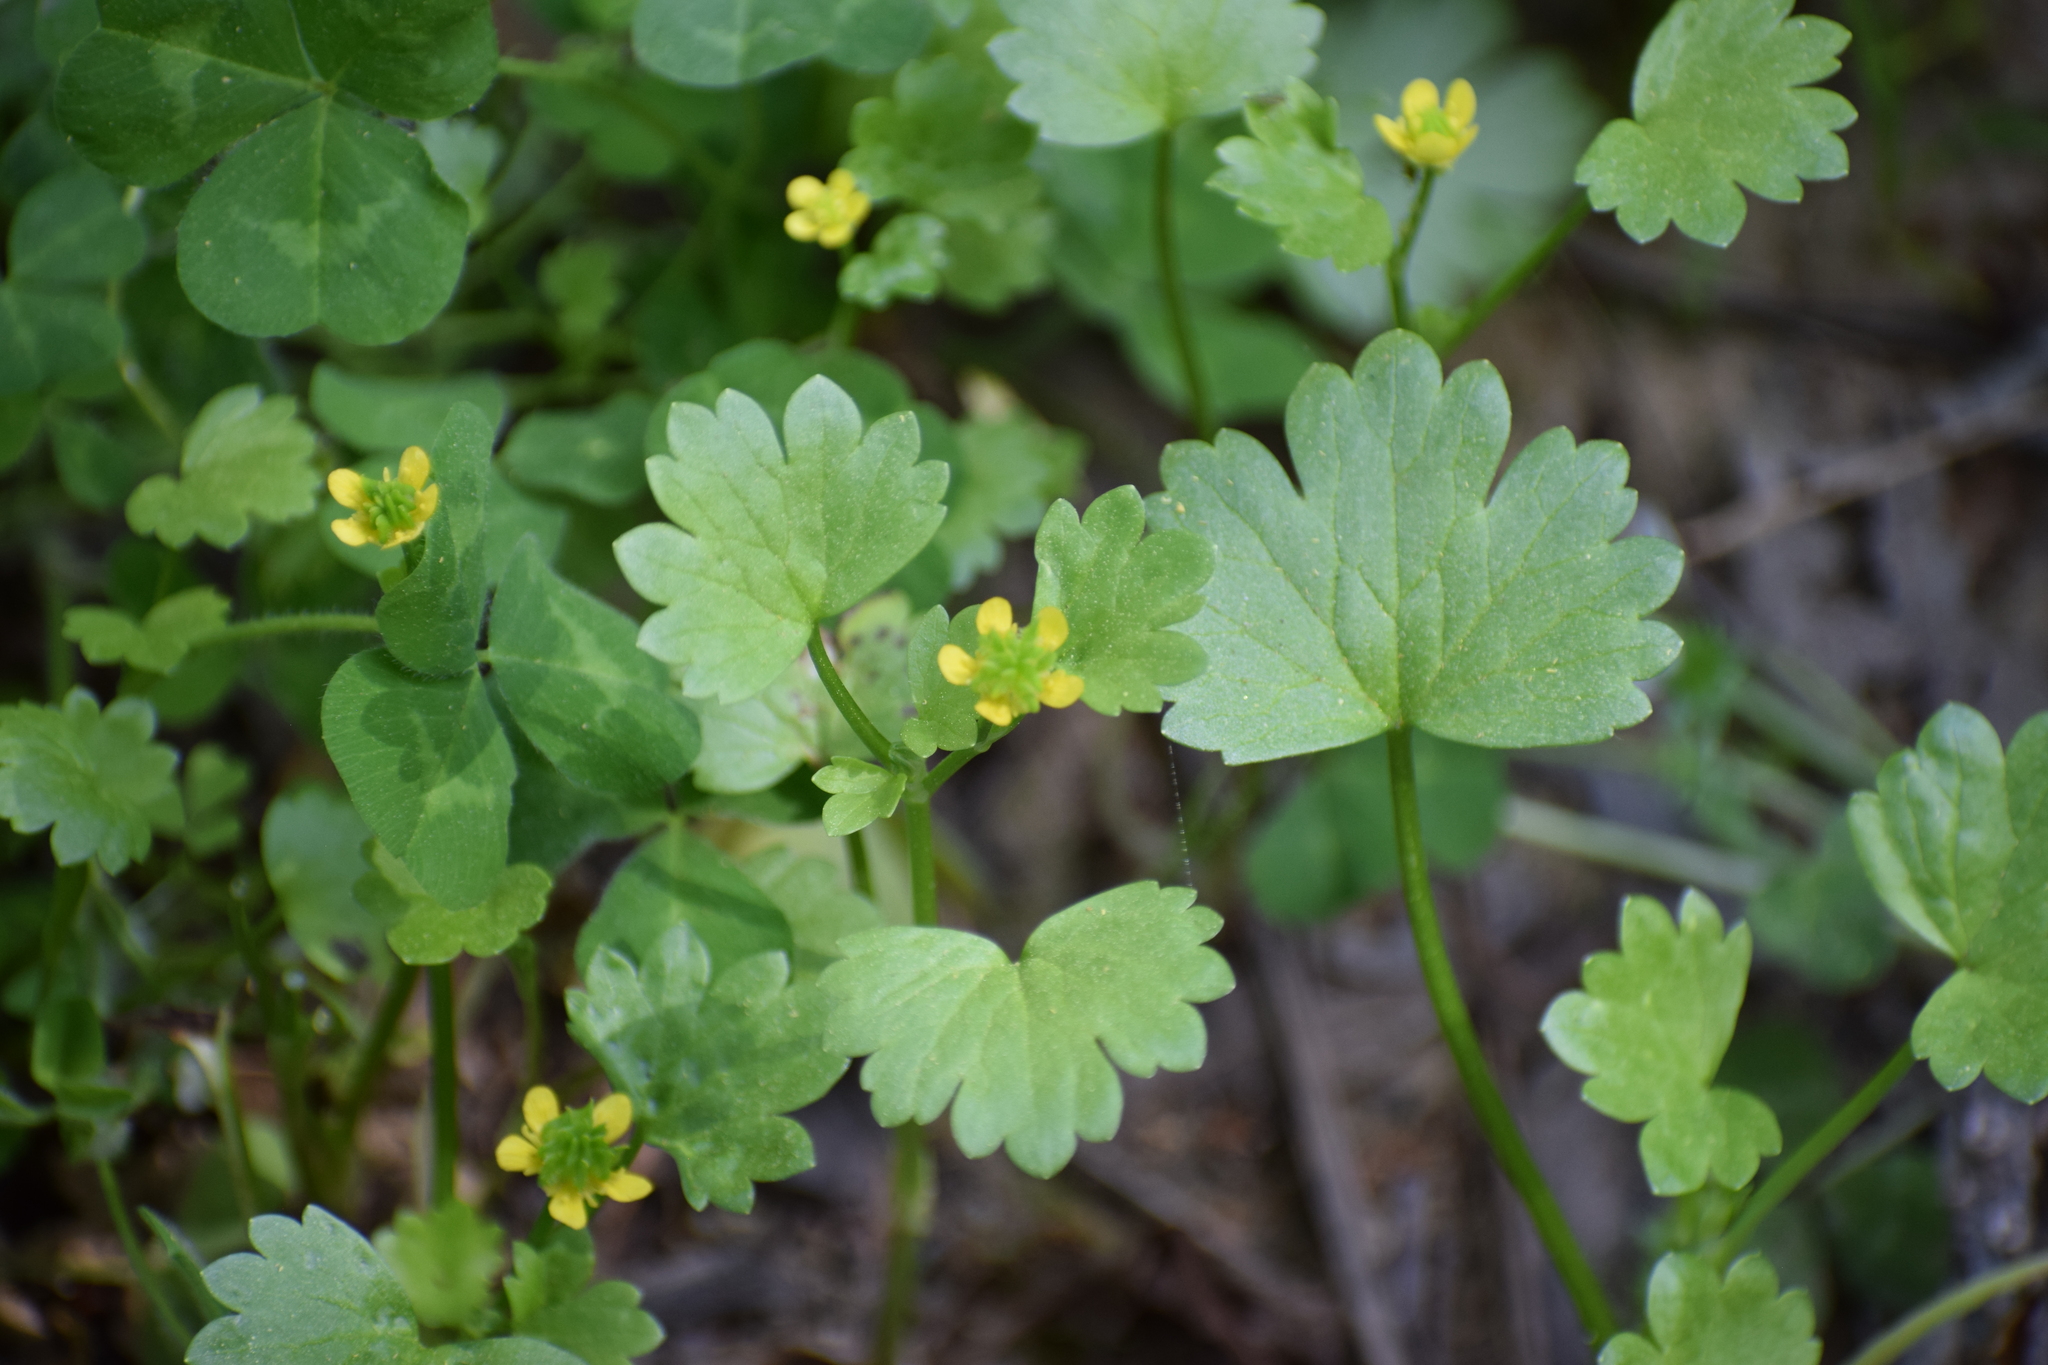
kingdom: Plantae
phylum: Tracheophyta
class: Magnoliopsida
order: Ranunculales
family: Ranunculaceae
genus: Ranunculus
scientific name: Ranunculus muricatus
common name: Rough-fruited buttercup
